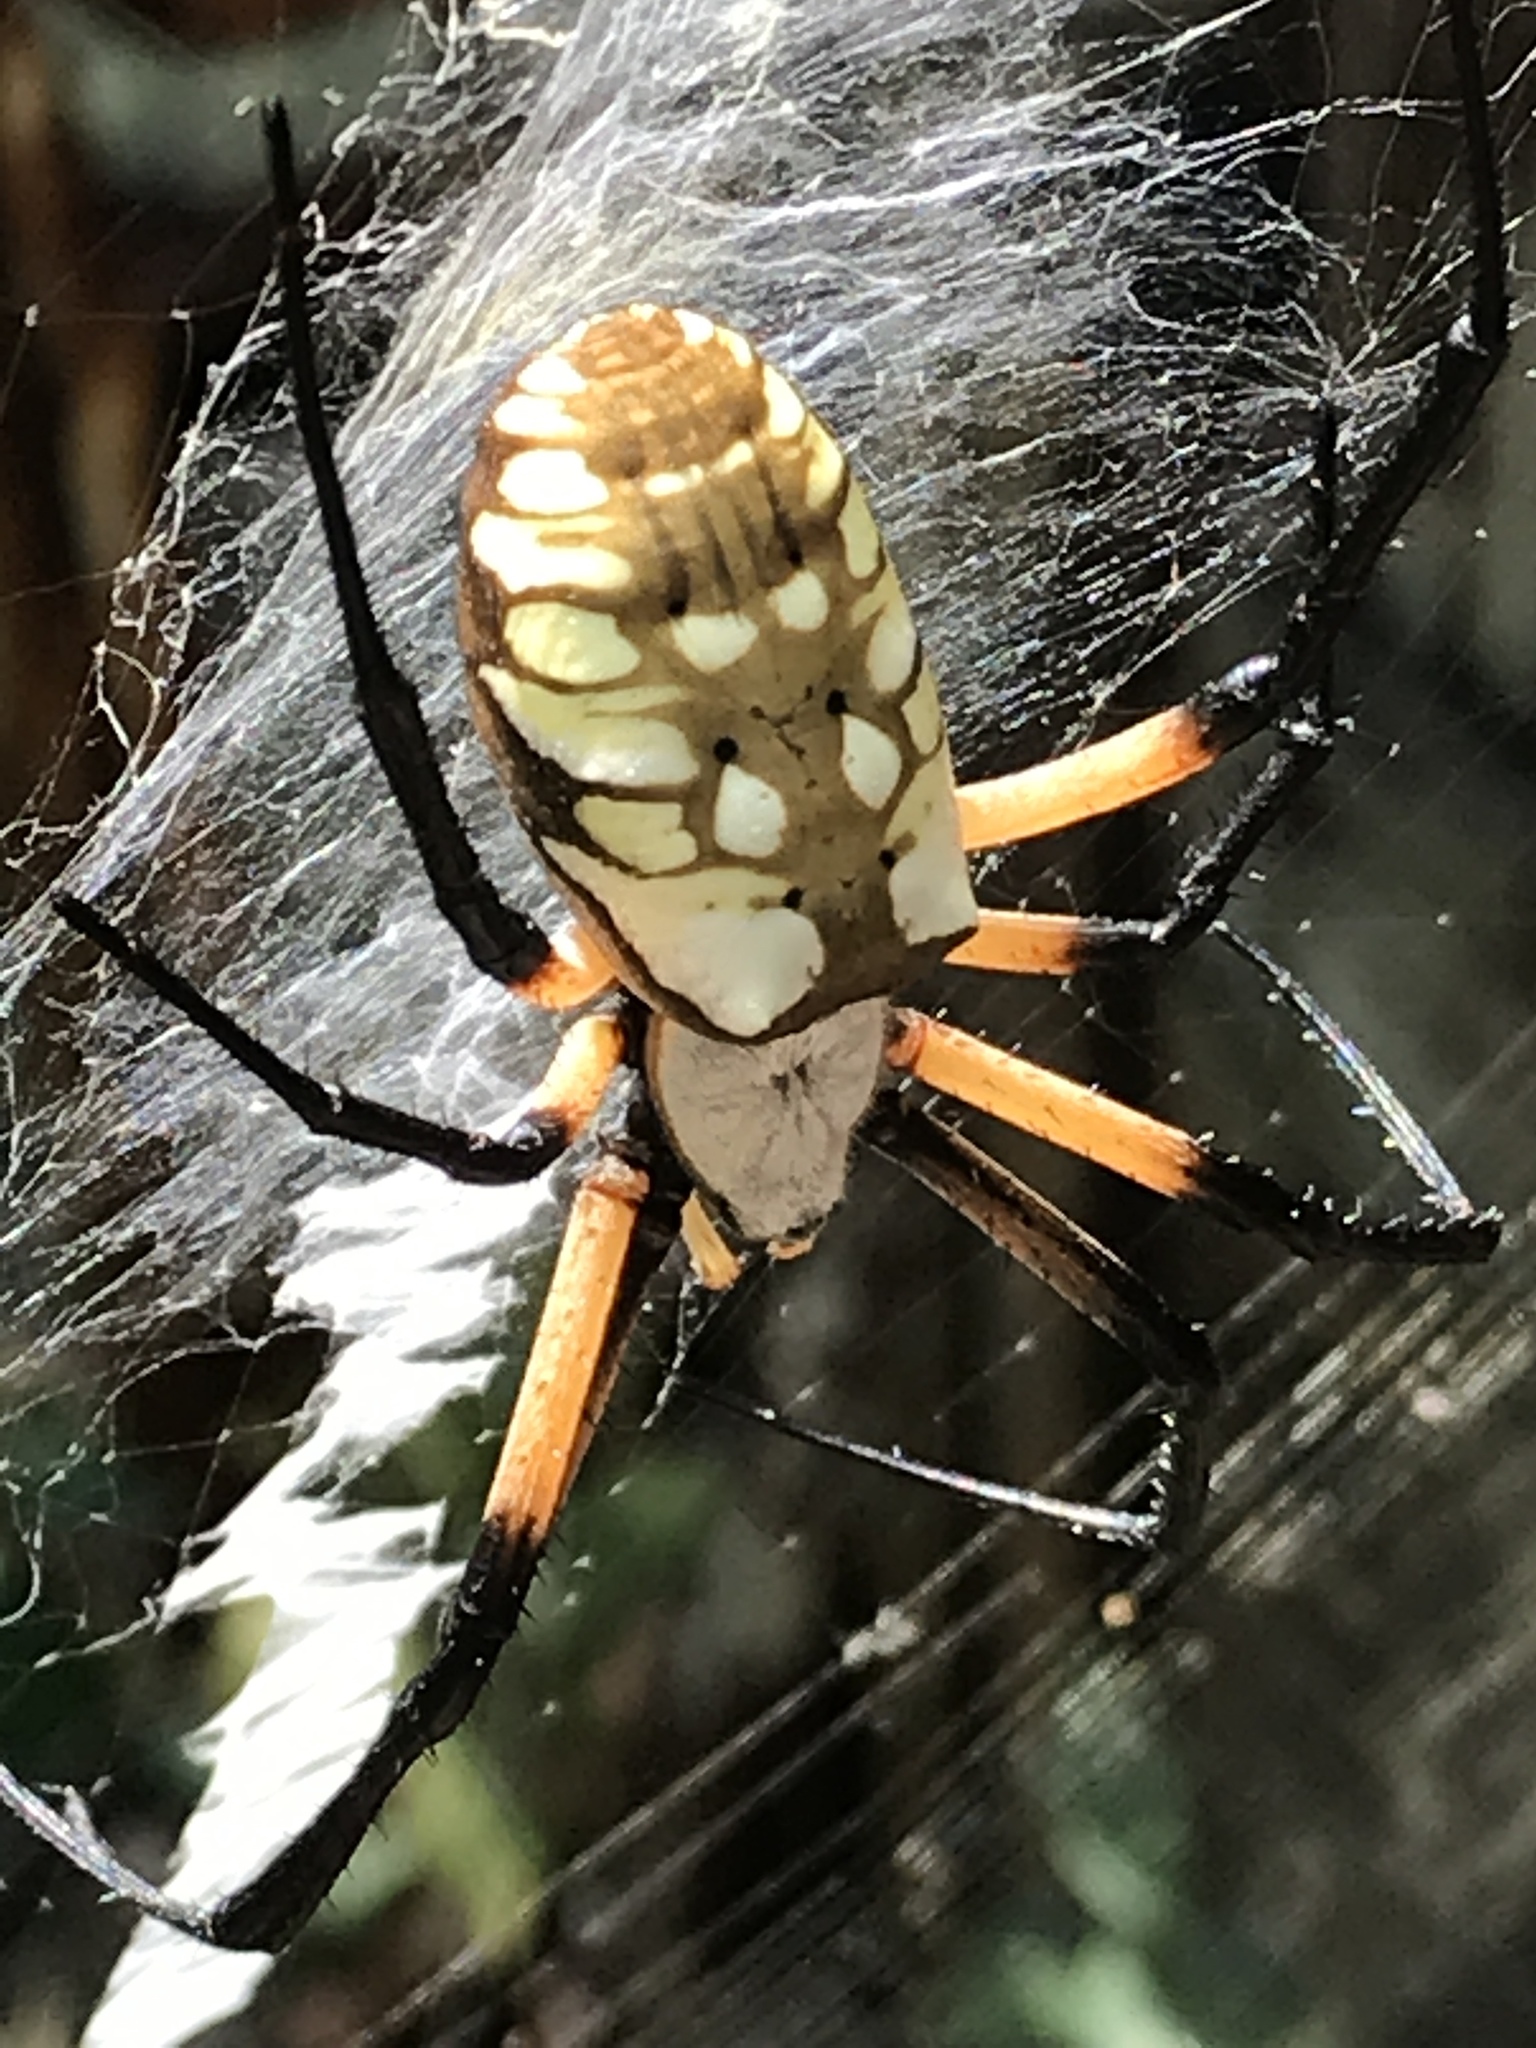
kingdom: Animalia
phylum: Arthropoda
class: Arachnida
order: Araneae
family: Araneidae
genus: Argiope
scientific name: Argiope aurantia
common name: Orb weavers
